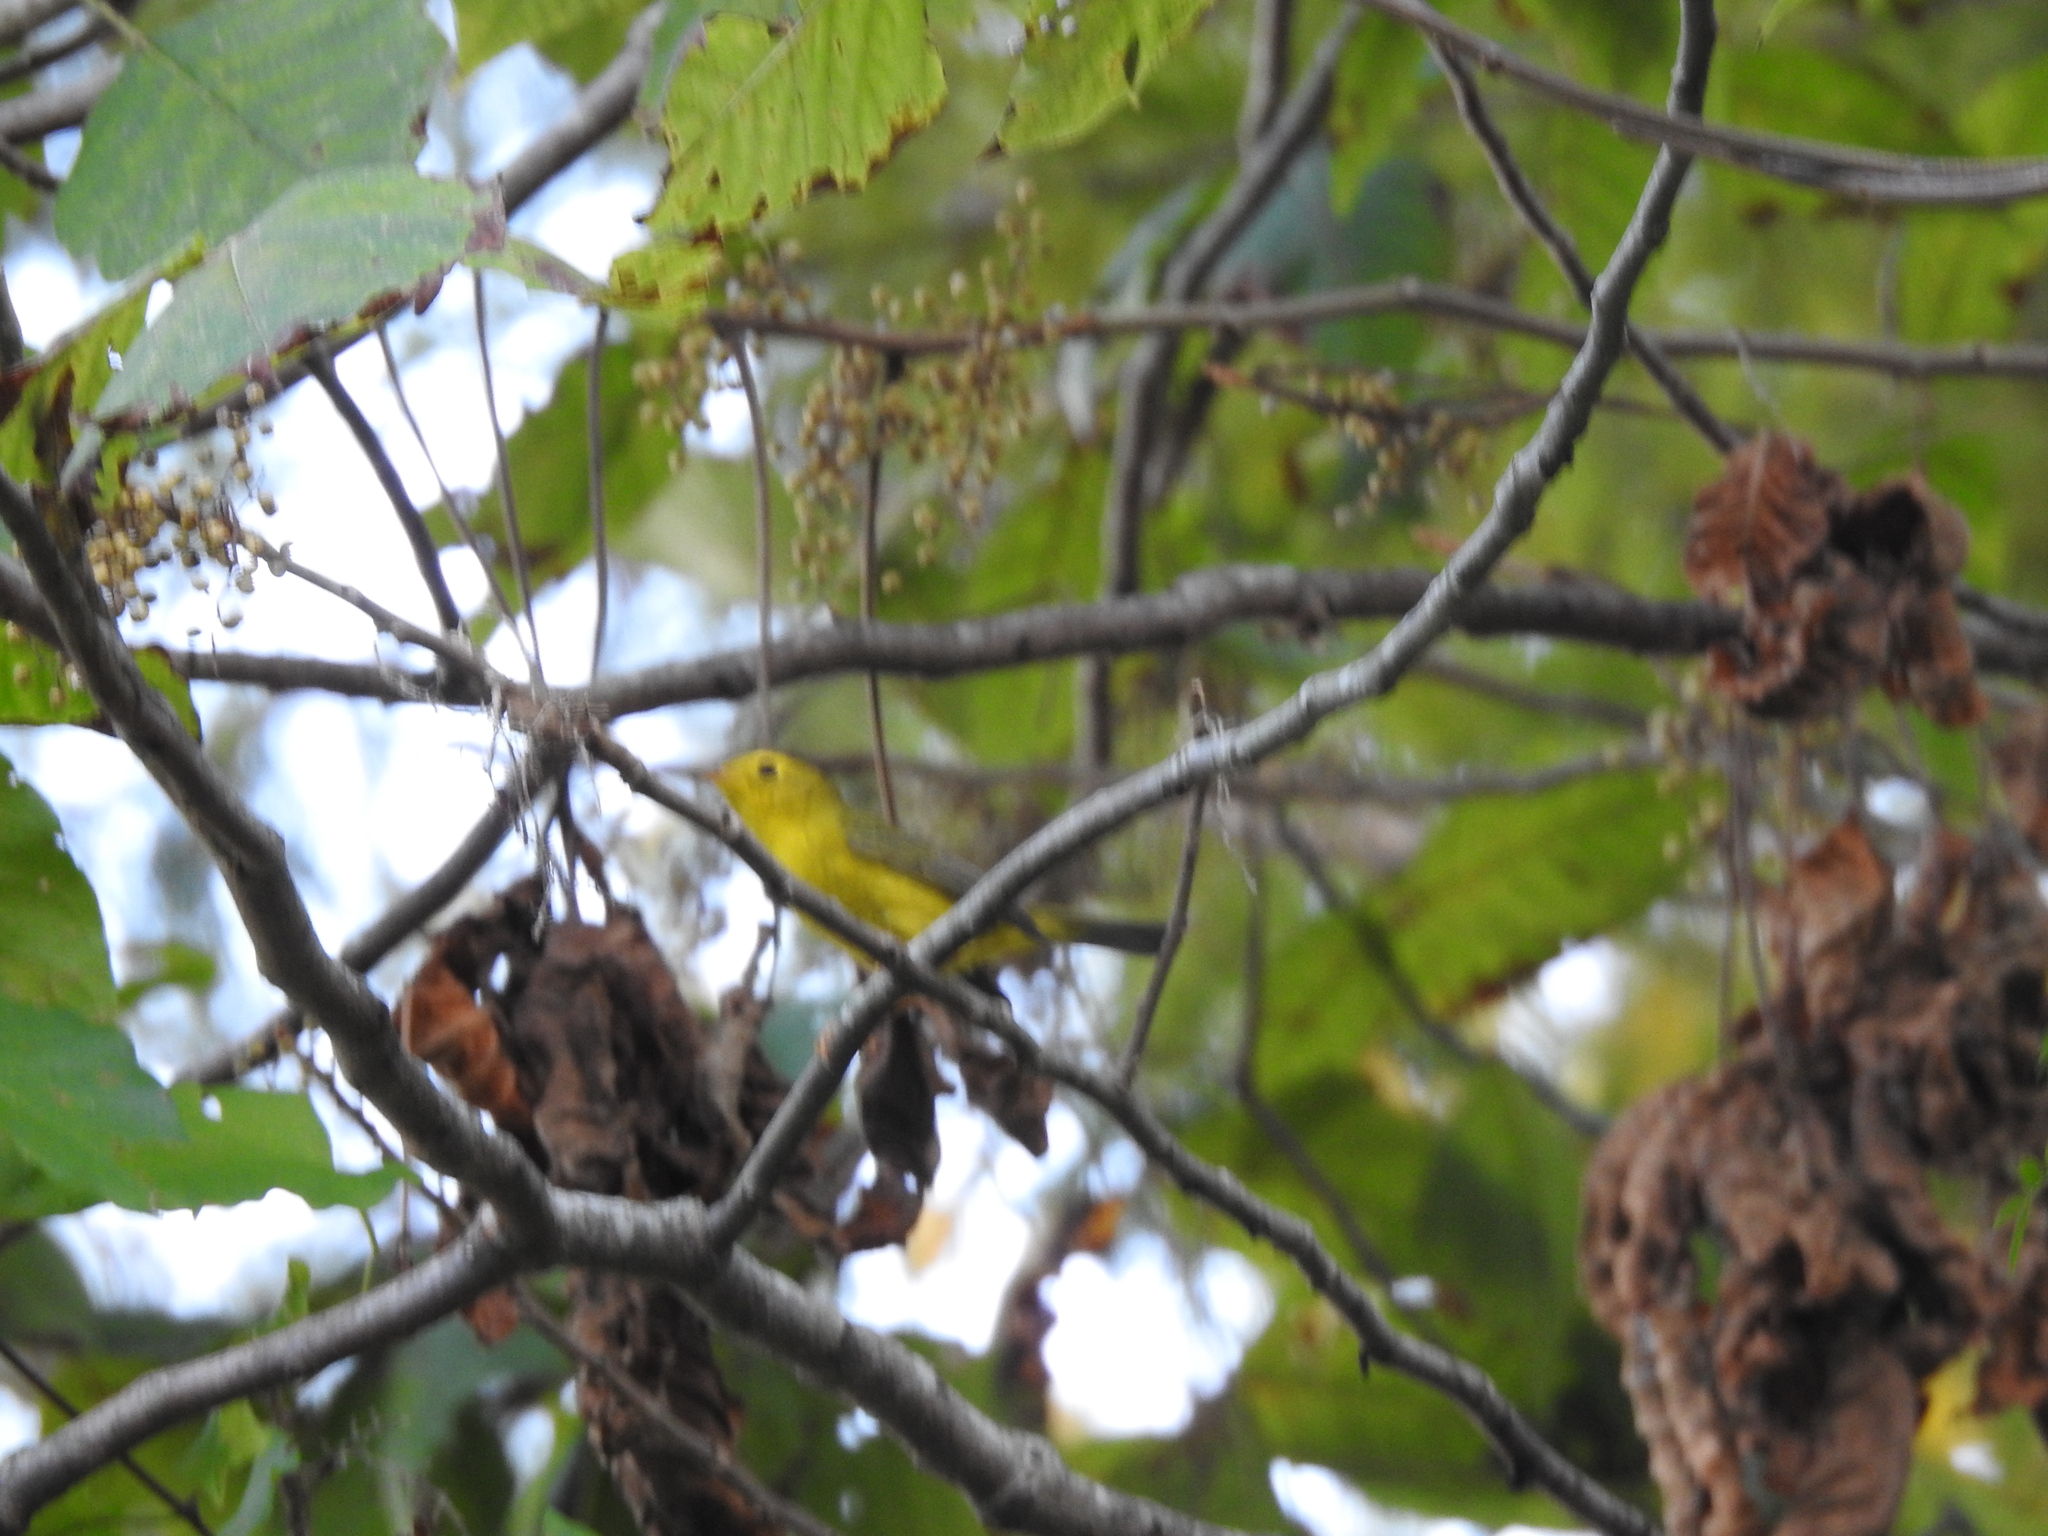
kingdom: Animalia
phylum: Chordata
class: Aves
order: Passeriformes
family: Parulidae
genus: Cardellina
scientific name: Cardellina pusilla
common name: Wilson's warbler
